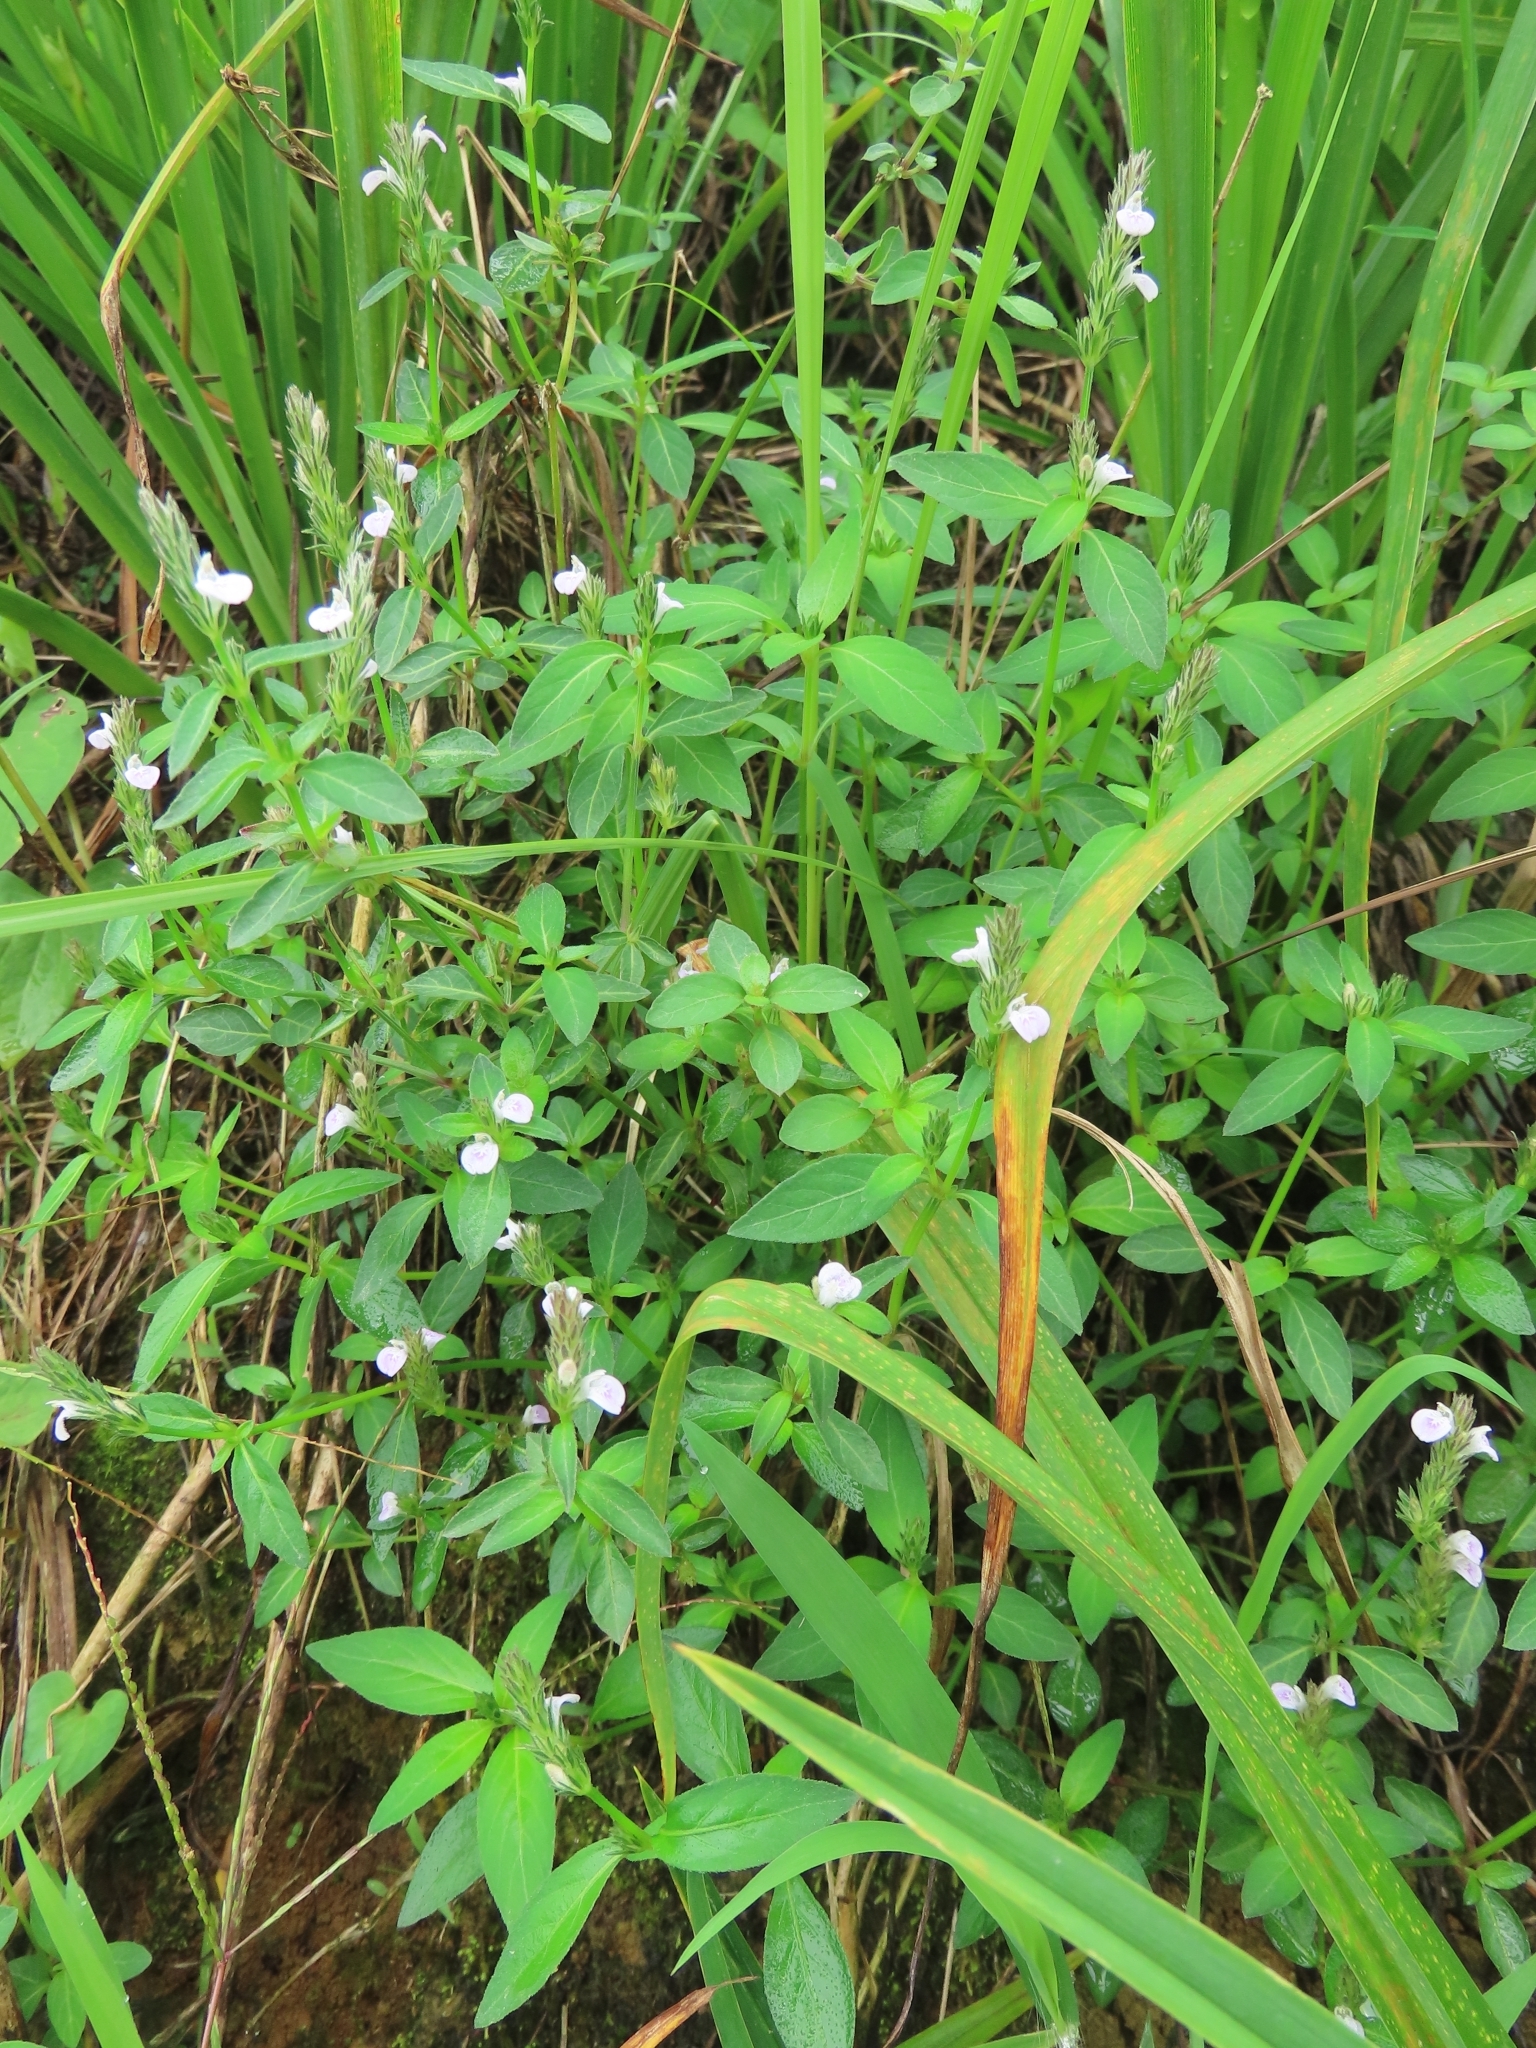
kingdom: Plantae
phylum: Tracheophyta
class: Magnoliopsida
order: Lamiales
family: Acanthaceae
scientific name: Acanthaceae
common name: Acanthaceae
